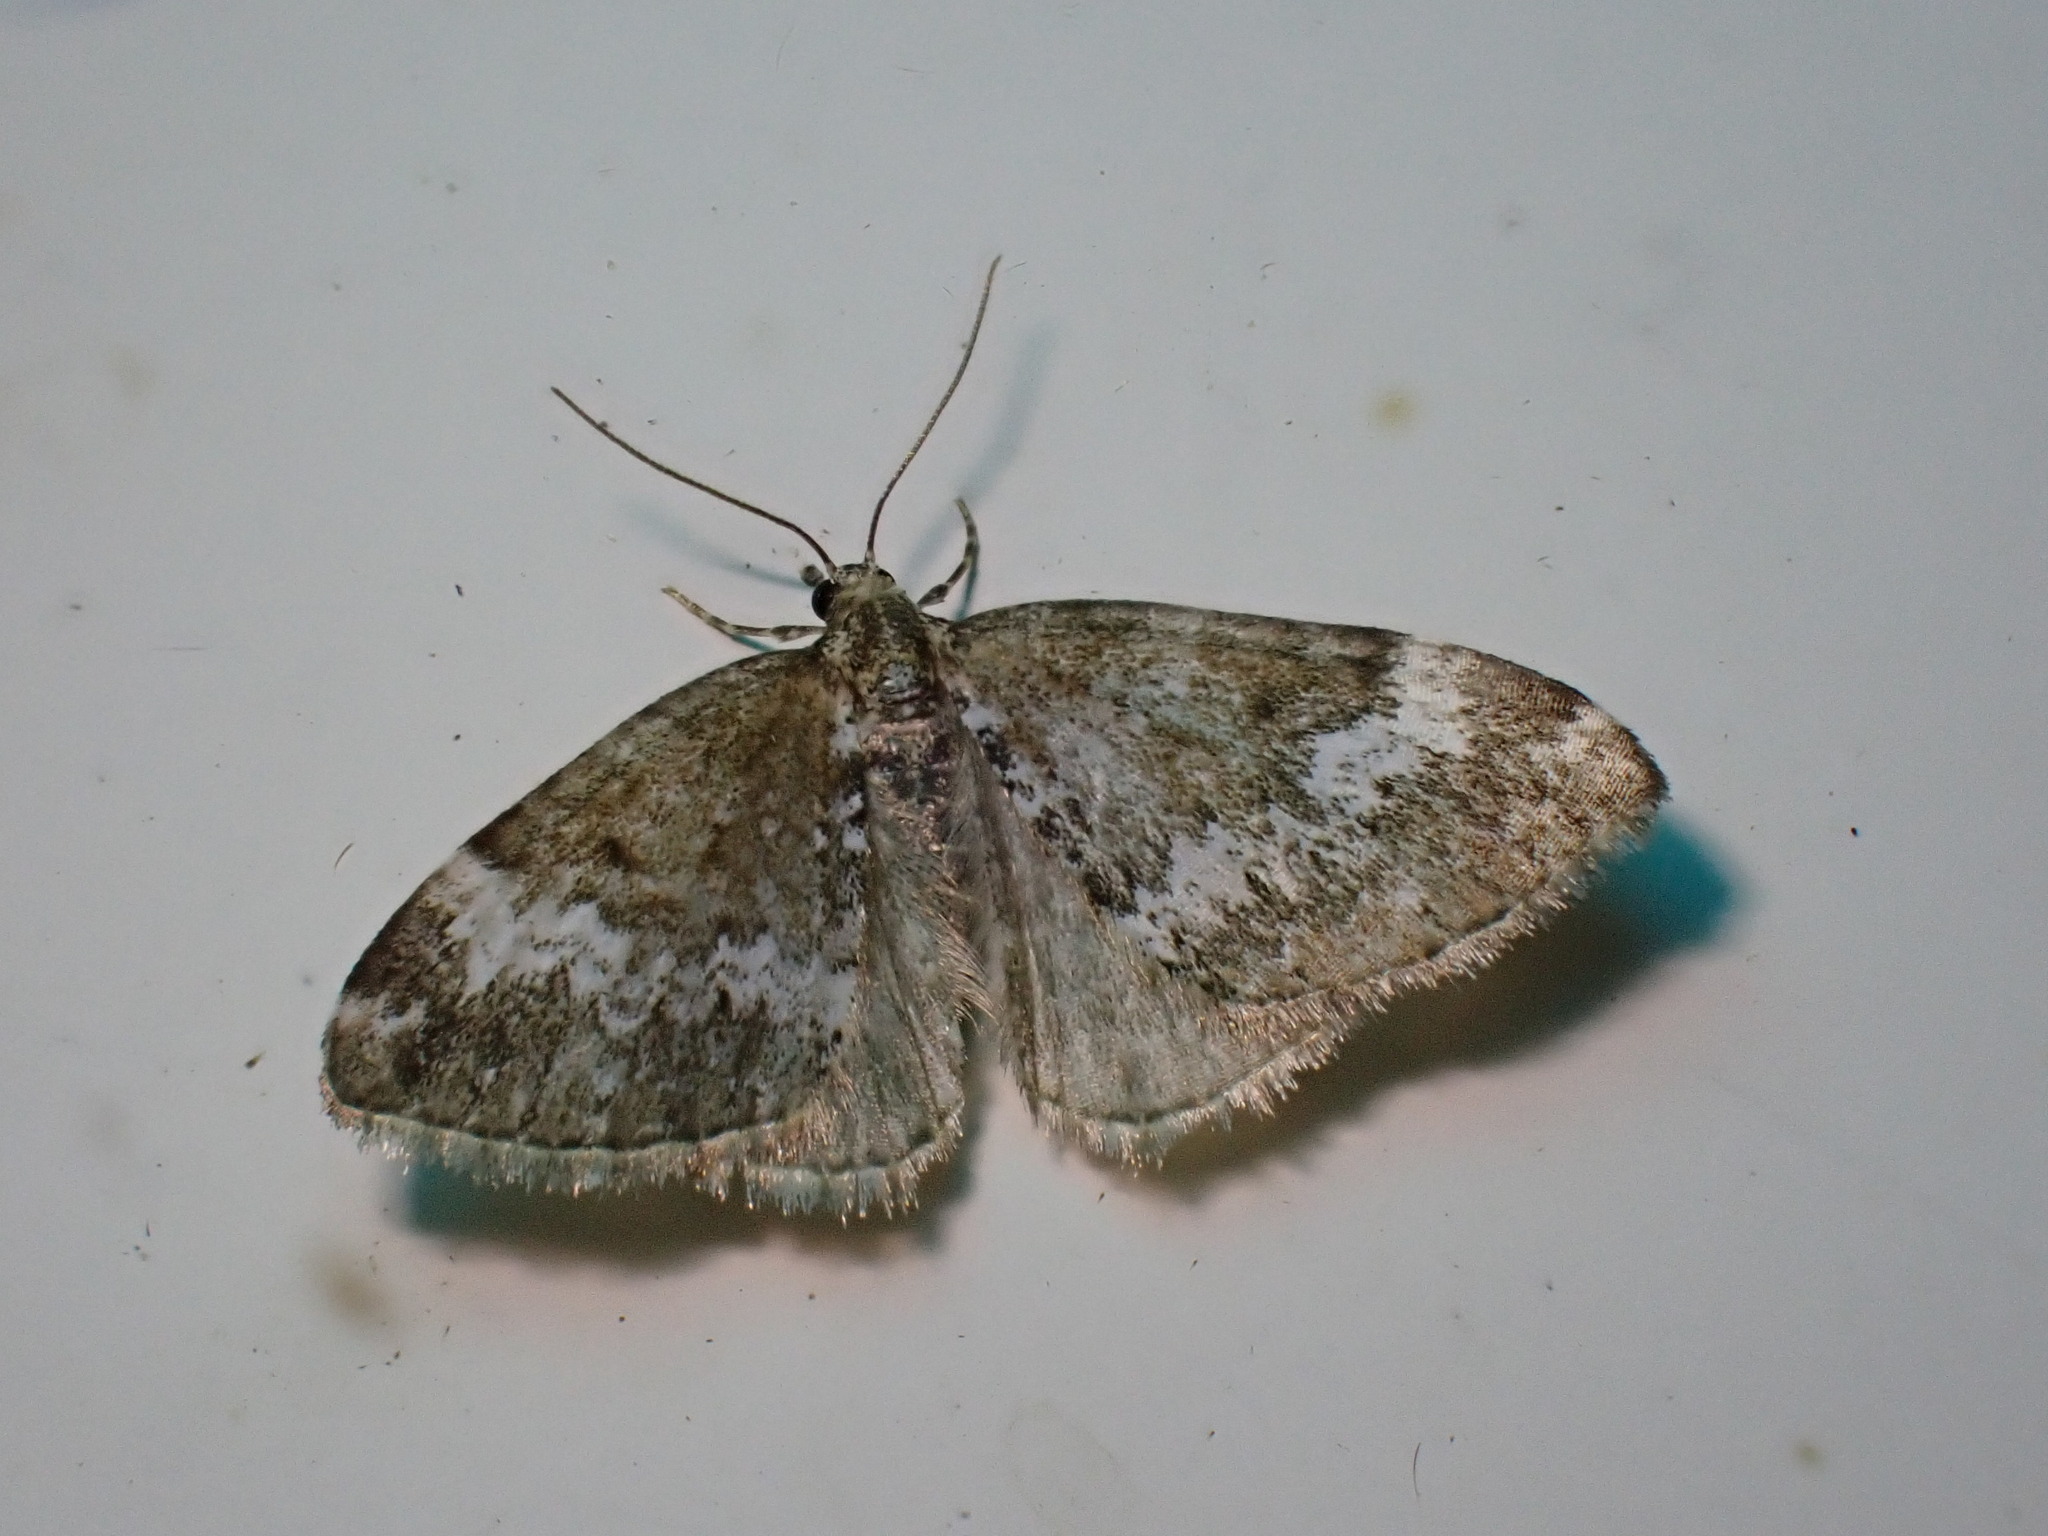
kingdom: Animalia
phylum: Arthropoda
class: Insecta
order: Lepidoptera
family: Geometridae
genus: Perizoma
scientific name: Perizoma alchemillata
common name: Small rivulet
